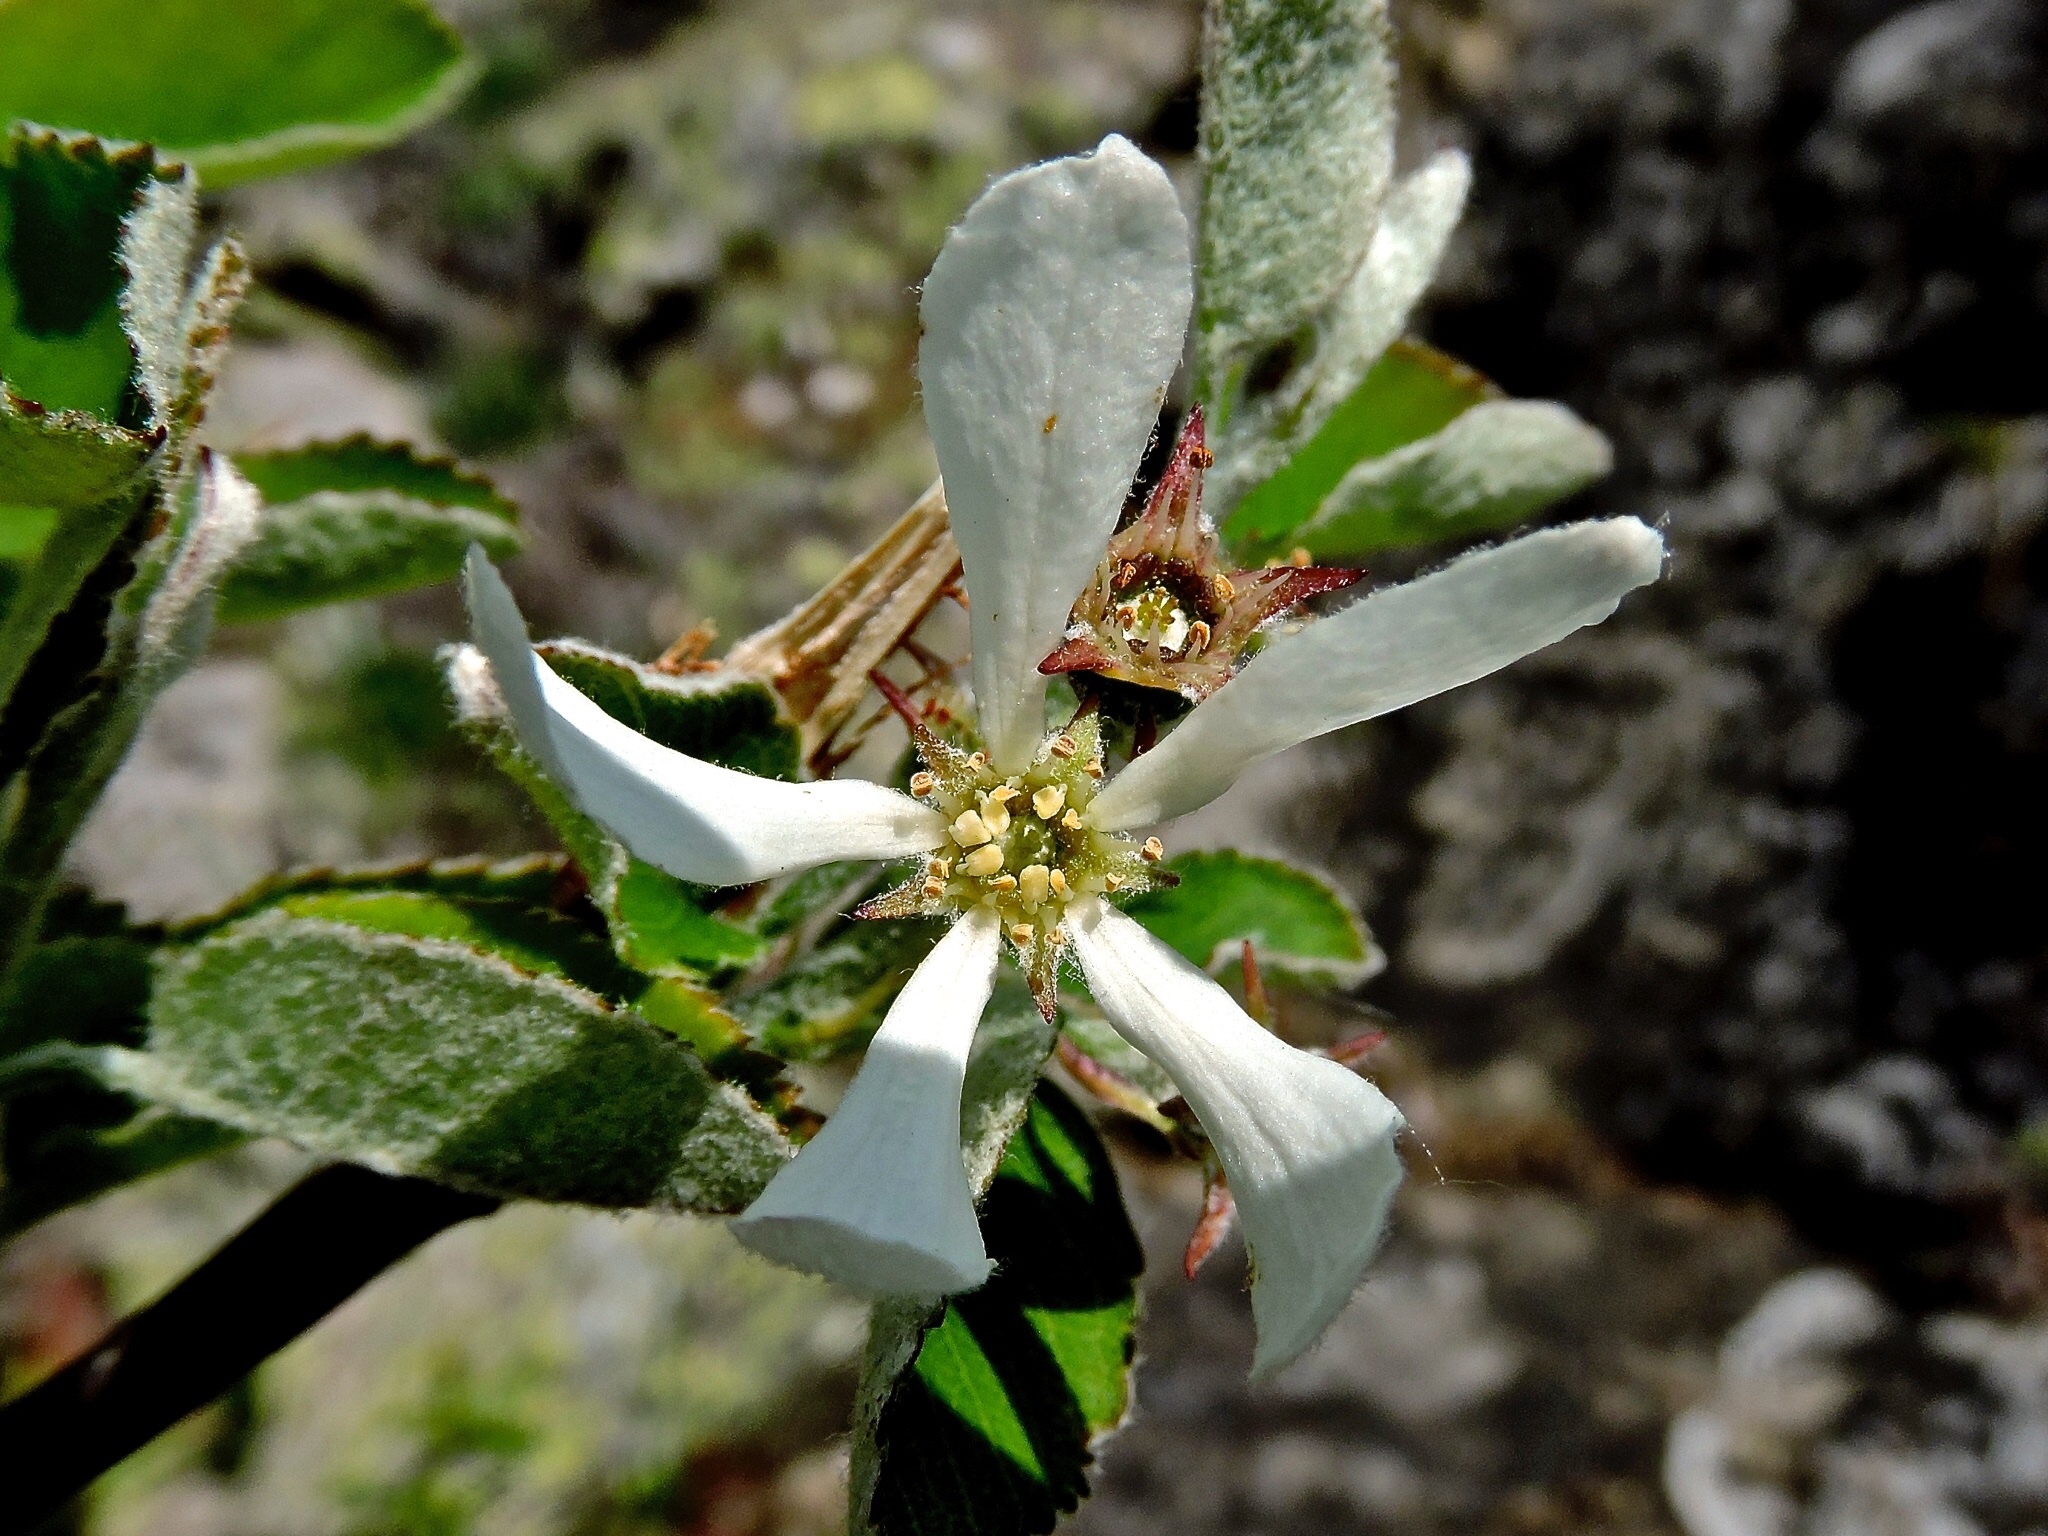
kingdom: Plantae
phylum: Tracheophyta
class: Magnoliopsida
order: Rosales
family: Rosaceae
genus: Amelanchier
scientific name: Amelanchier ovalis
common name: Serviceberry
